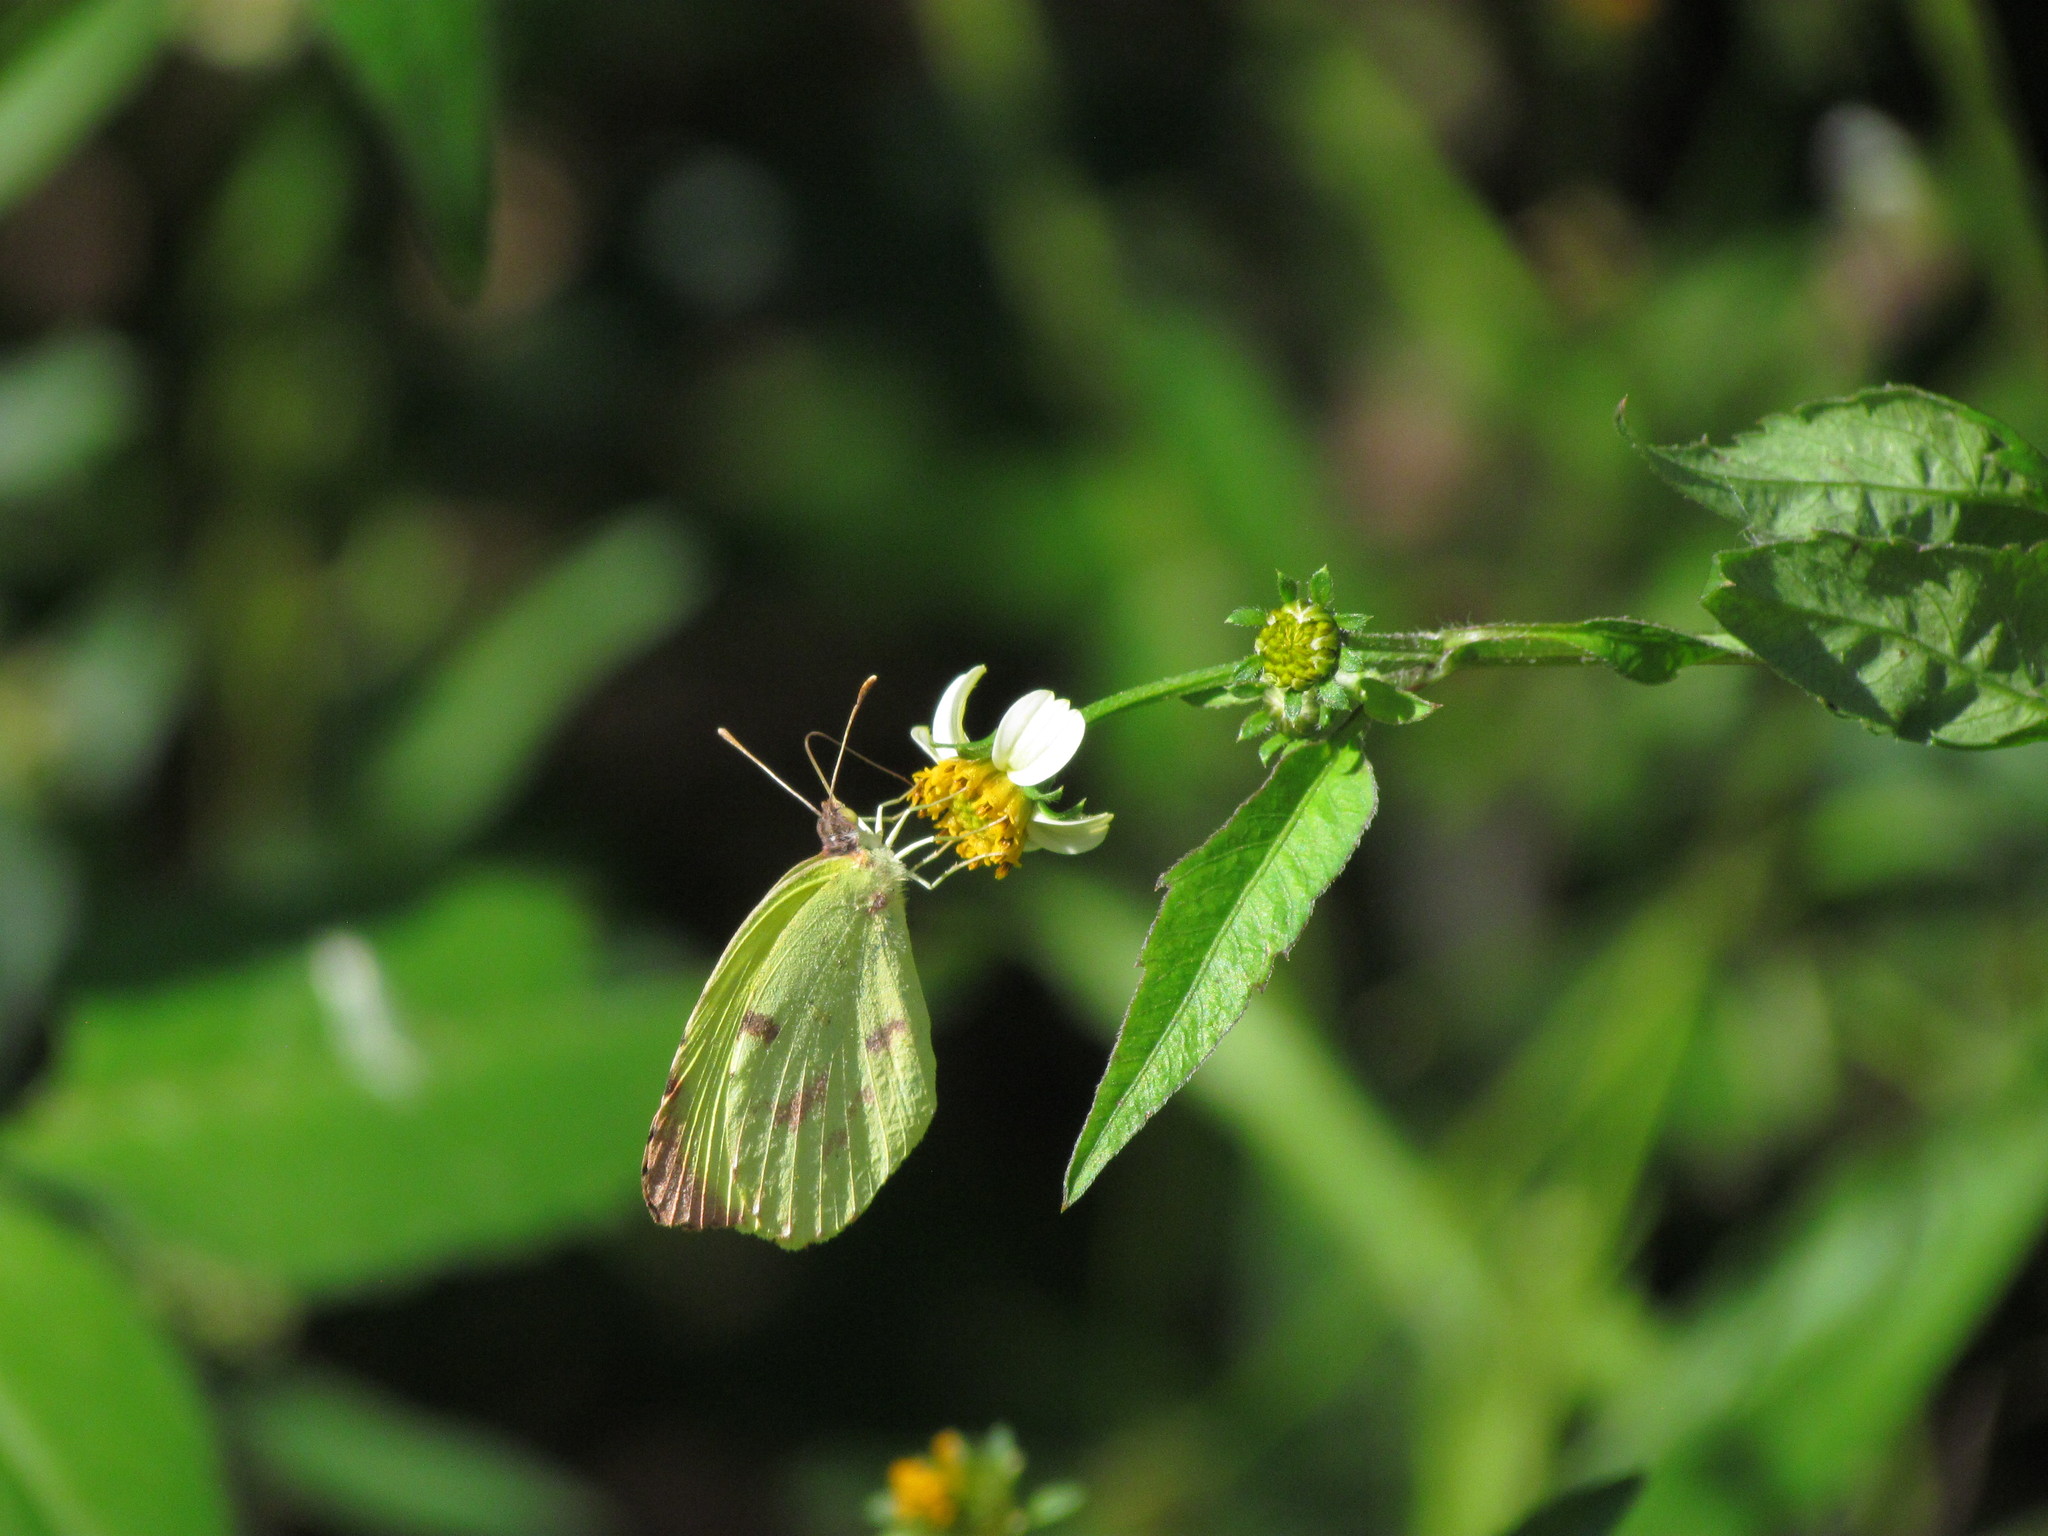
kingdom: Animalia
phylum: Arthropoda
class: Insecta
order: Lepidoptera
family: Pieridae
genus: Teriocolias
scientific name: Teriocolias
